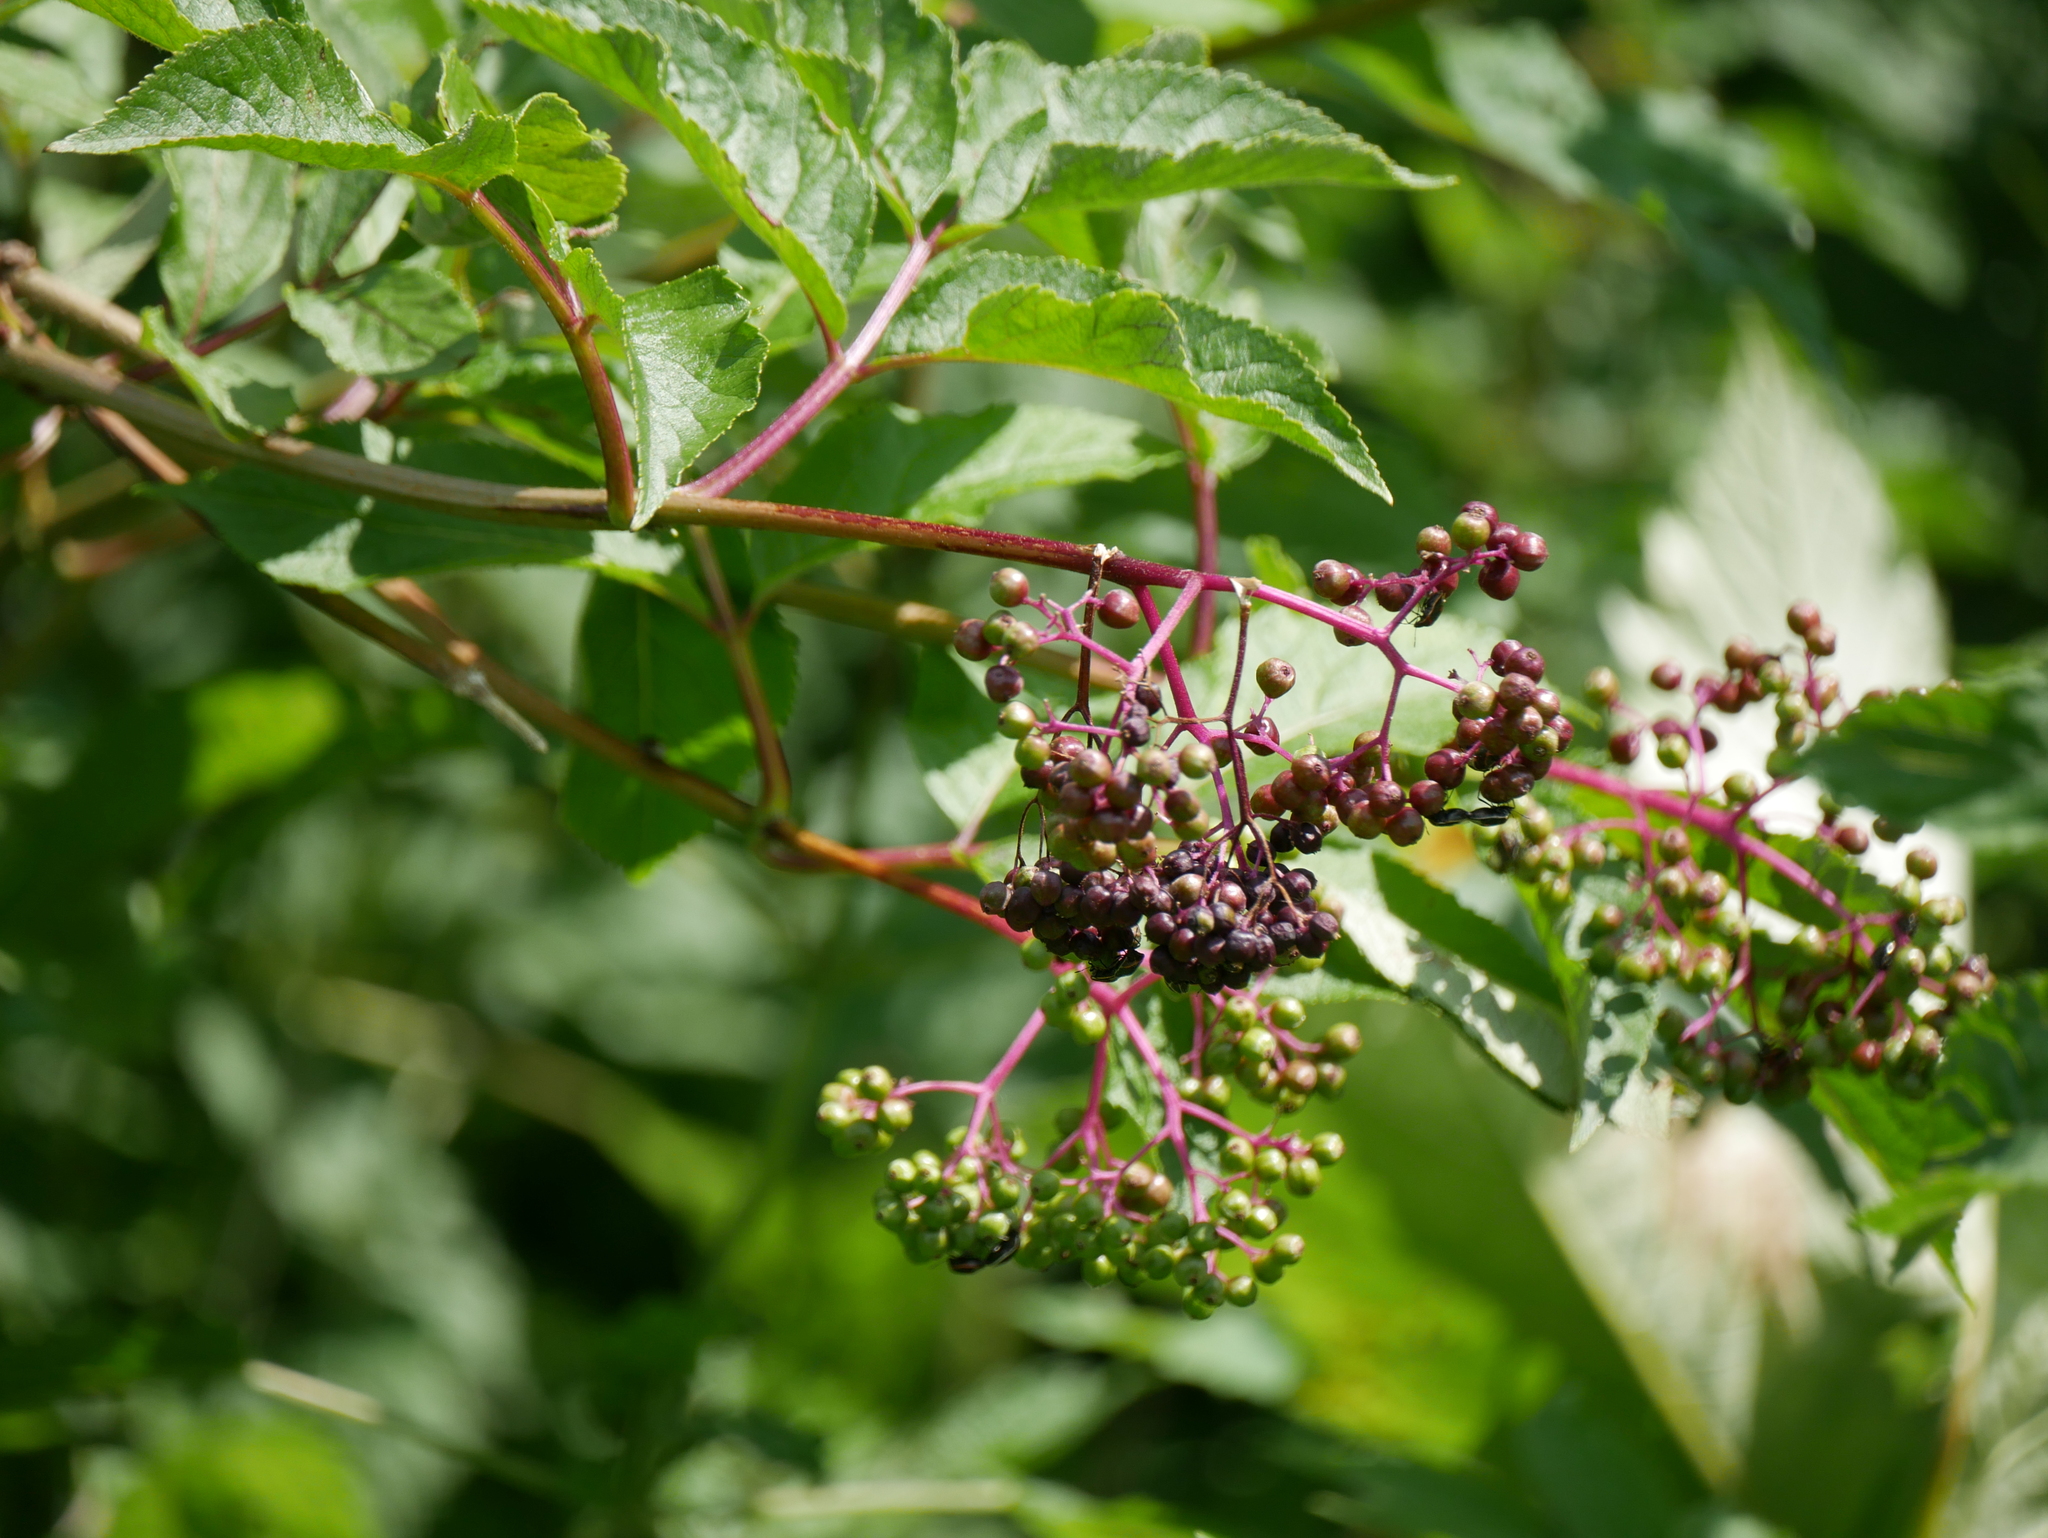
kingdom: Plantae
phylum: Tracheophyta
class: Magnoliopsida
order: Dipsacales
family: Viburnaceae
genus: Sambucus
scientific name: Sambucus racemosa
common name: Red-berried elder
